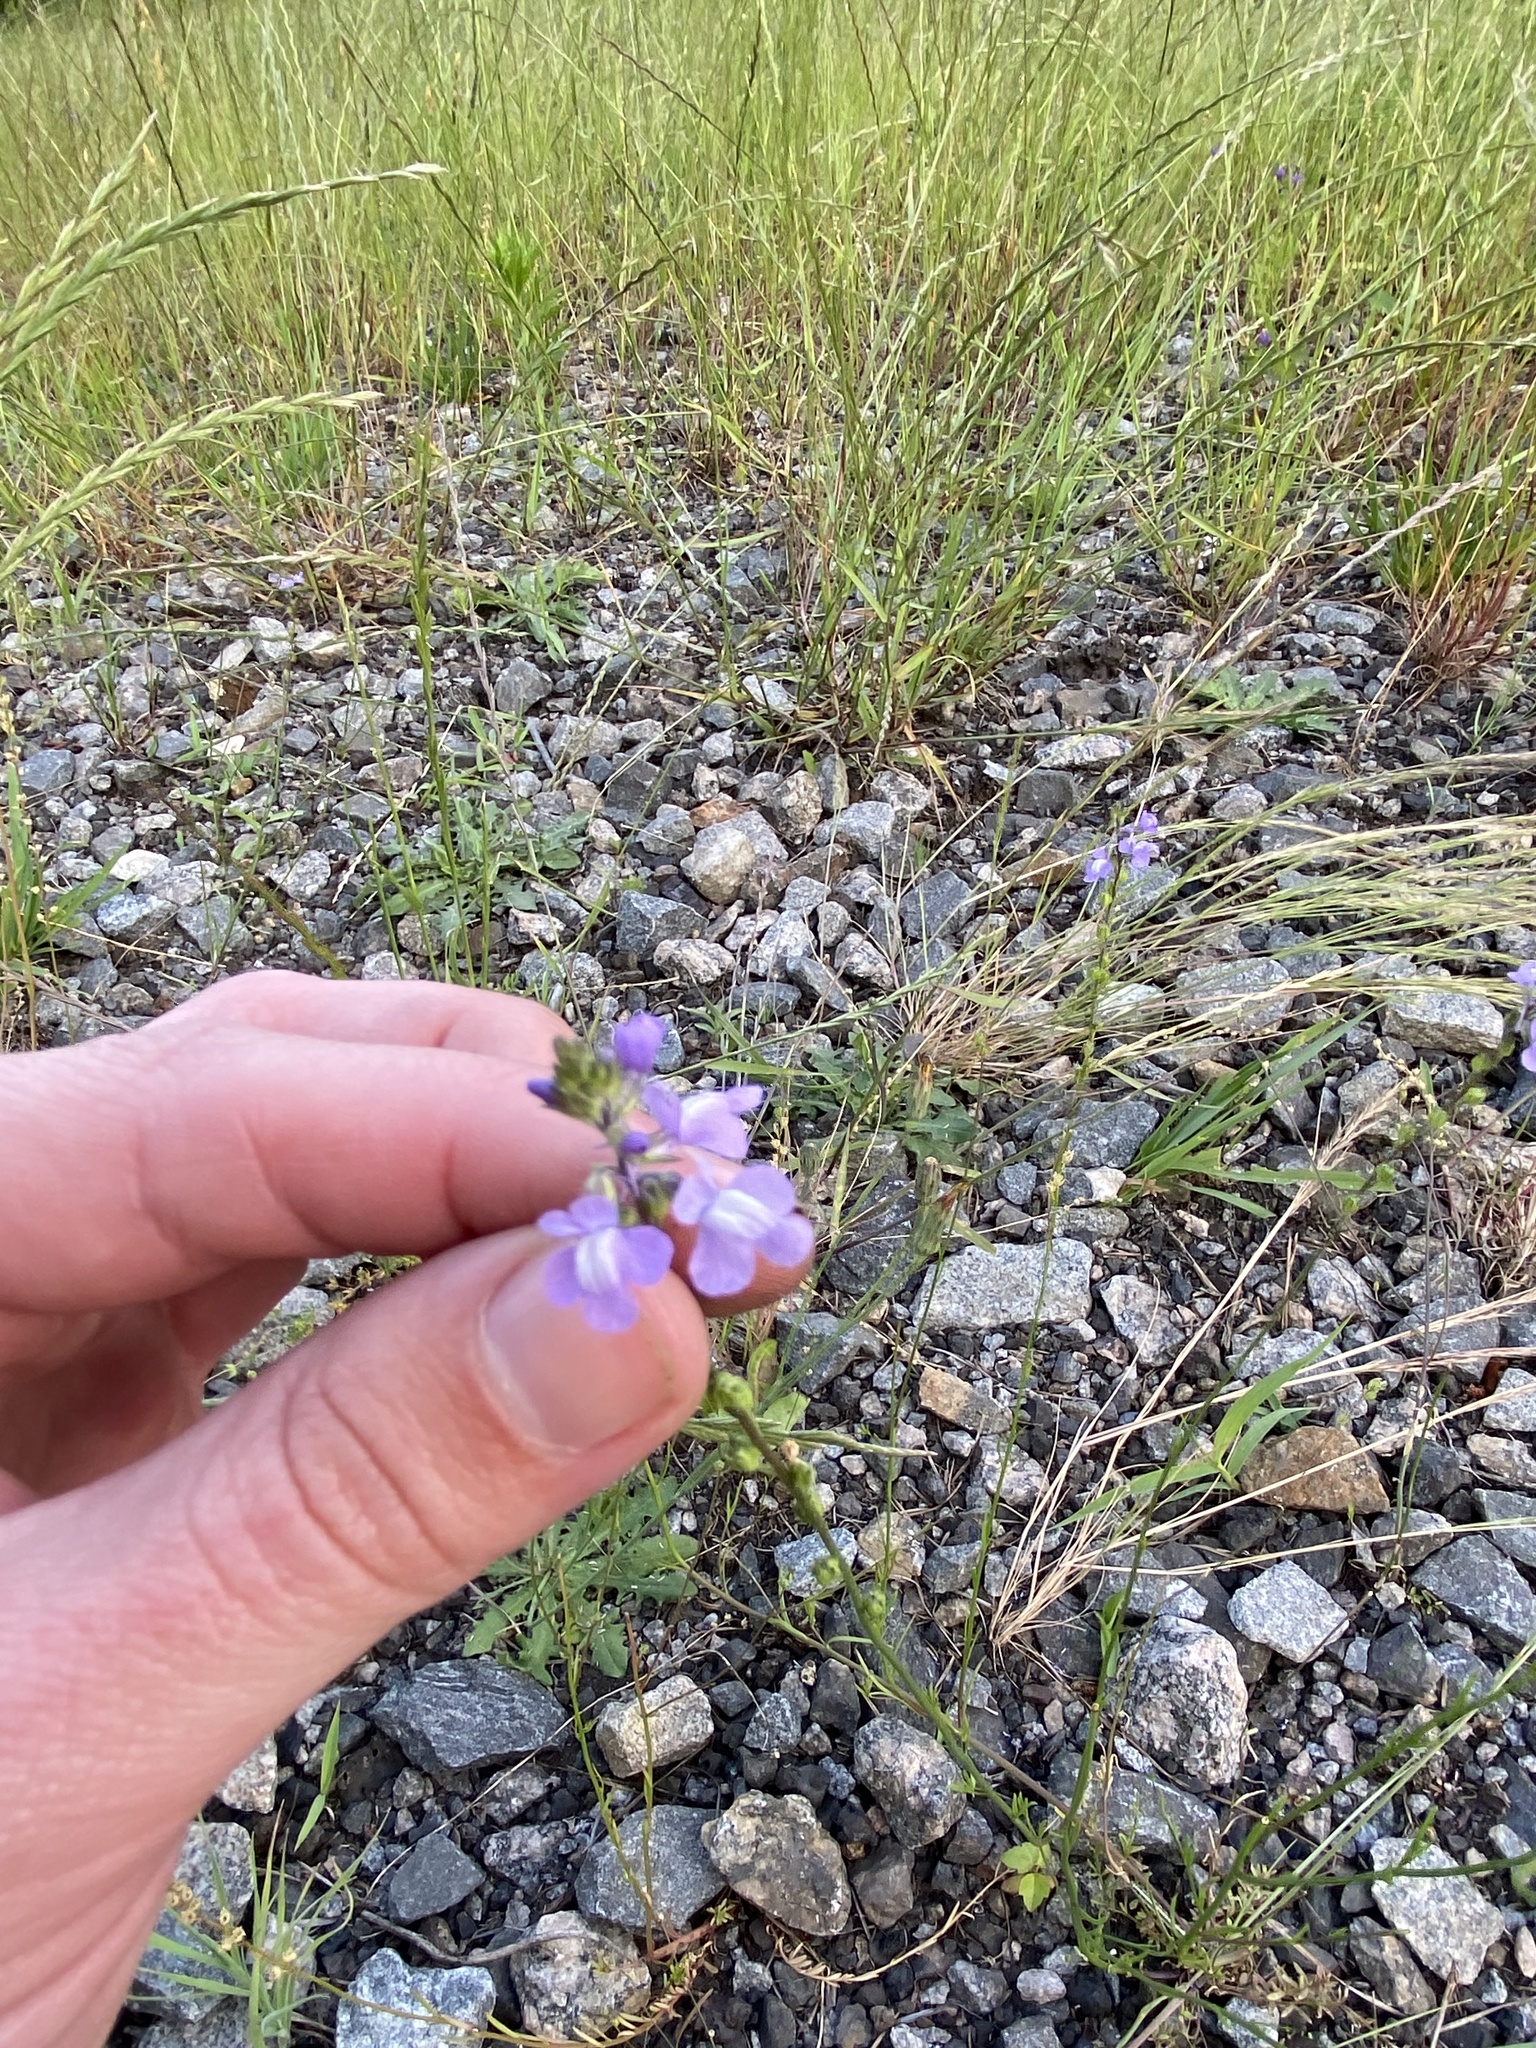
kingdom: Plantae
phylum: Tracheophyta
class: Magnoliopsida
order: Lamiales
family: Plantaginaceae
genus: Nuttallanthus
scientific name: Nuttallanthus canadensis
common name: Blue toadflax
